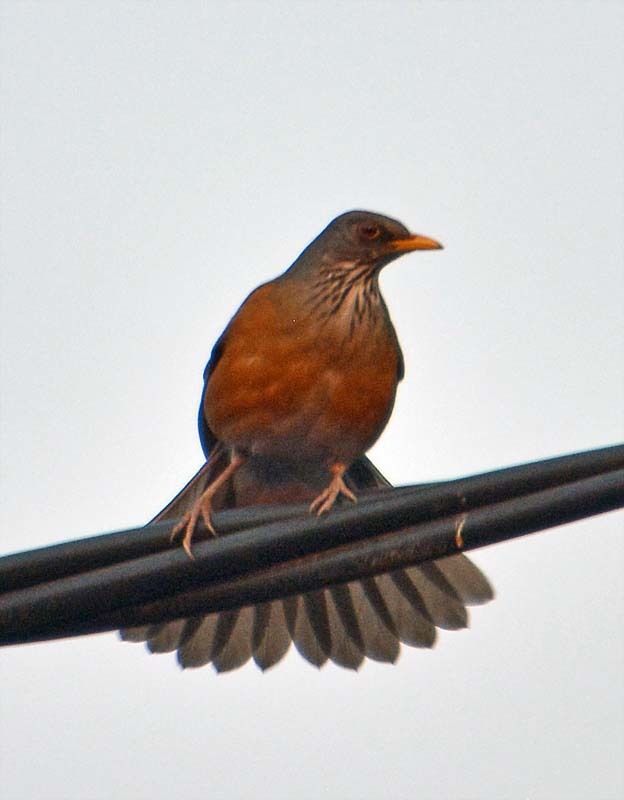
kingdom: Animalia
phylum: Chordata
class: Aves
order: Passeriformes
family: Turdidae
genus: Turdus
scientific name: Turdus rufopalliatus
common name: Rufous-backed robin
